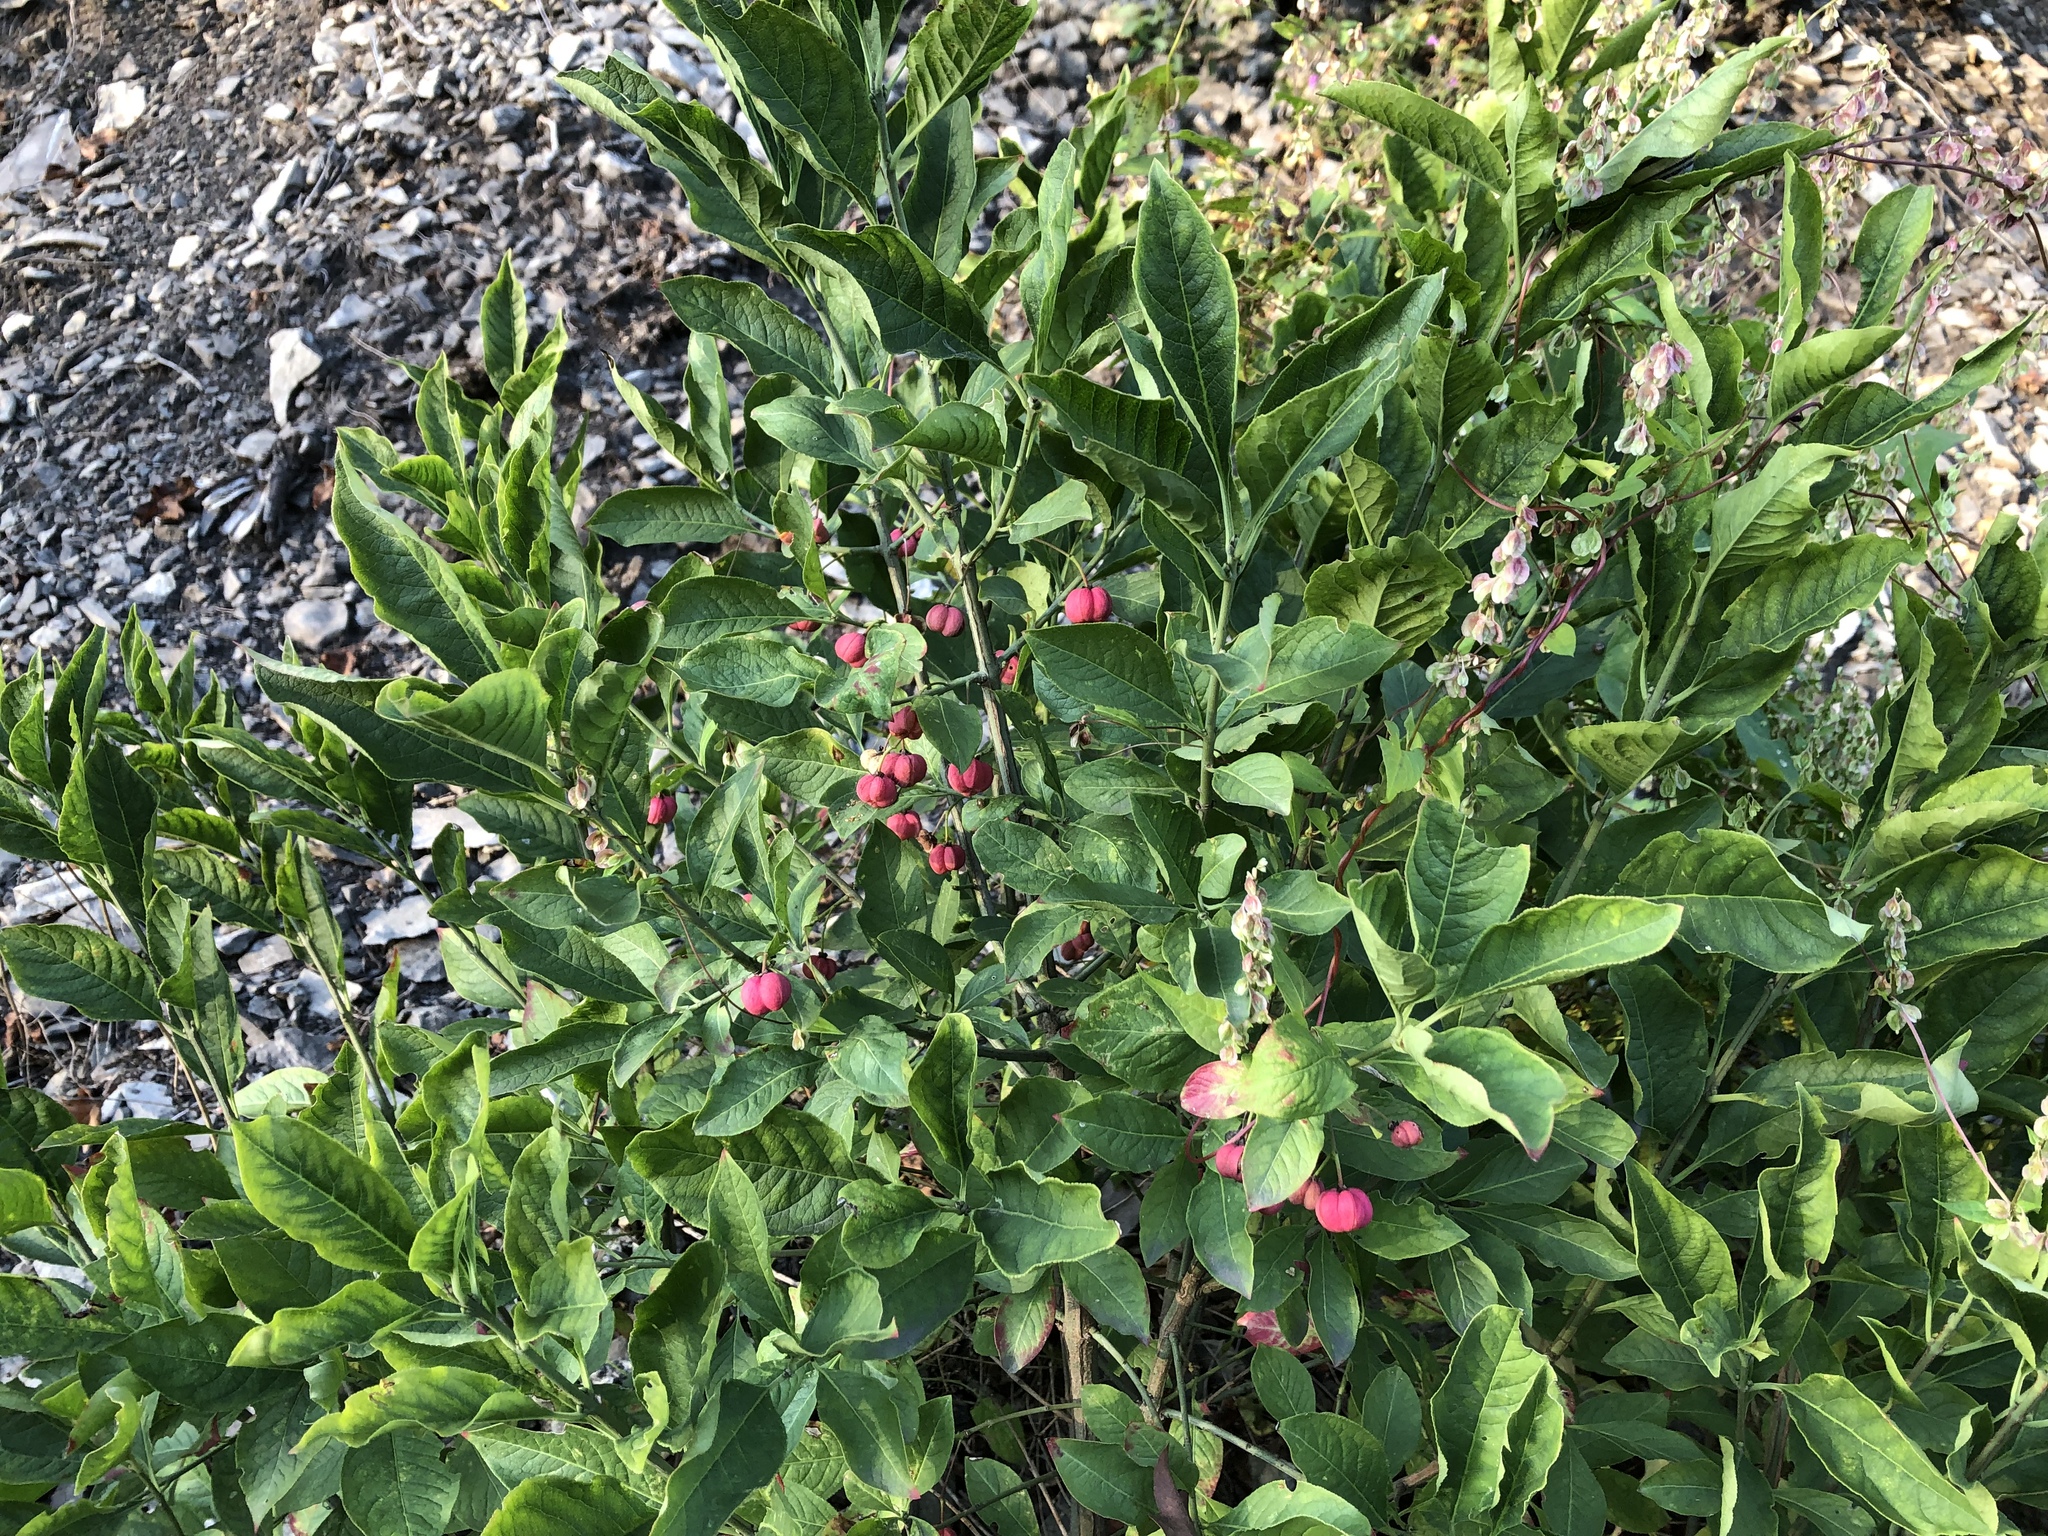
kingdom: Plantae
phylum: Tracheophyta
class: Magnoliopsida
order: Celastrales
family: Celastraceae
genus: Euonymus
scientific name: Euonymus europaeus
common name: Spindle
